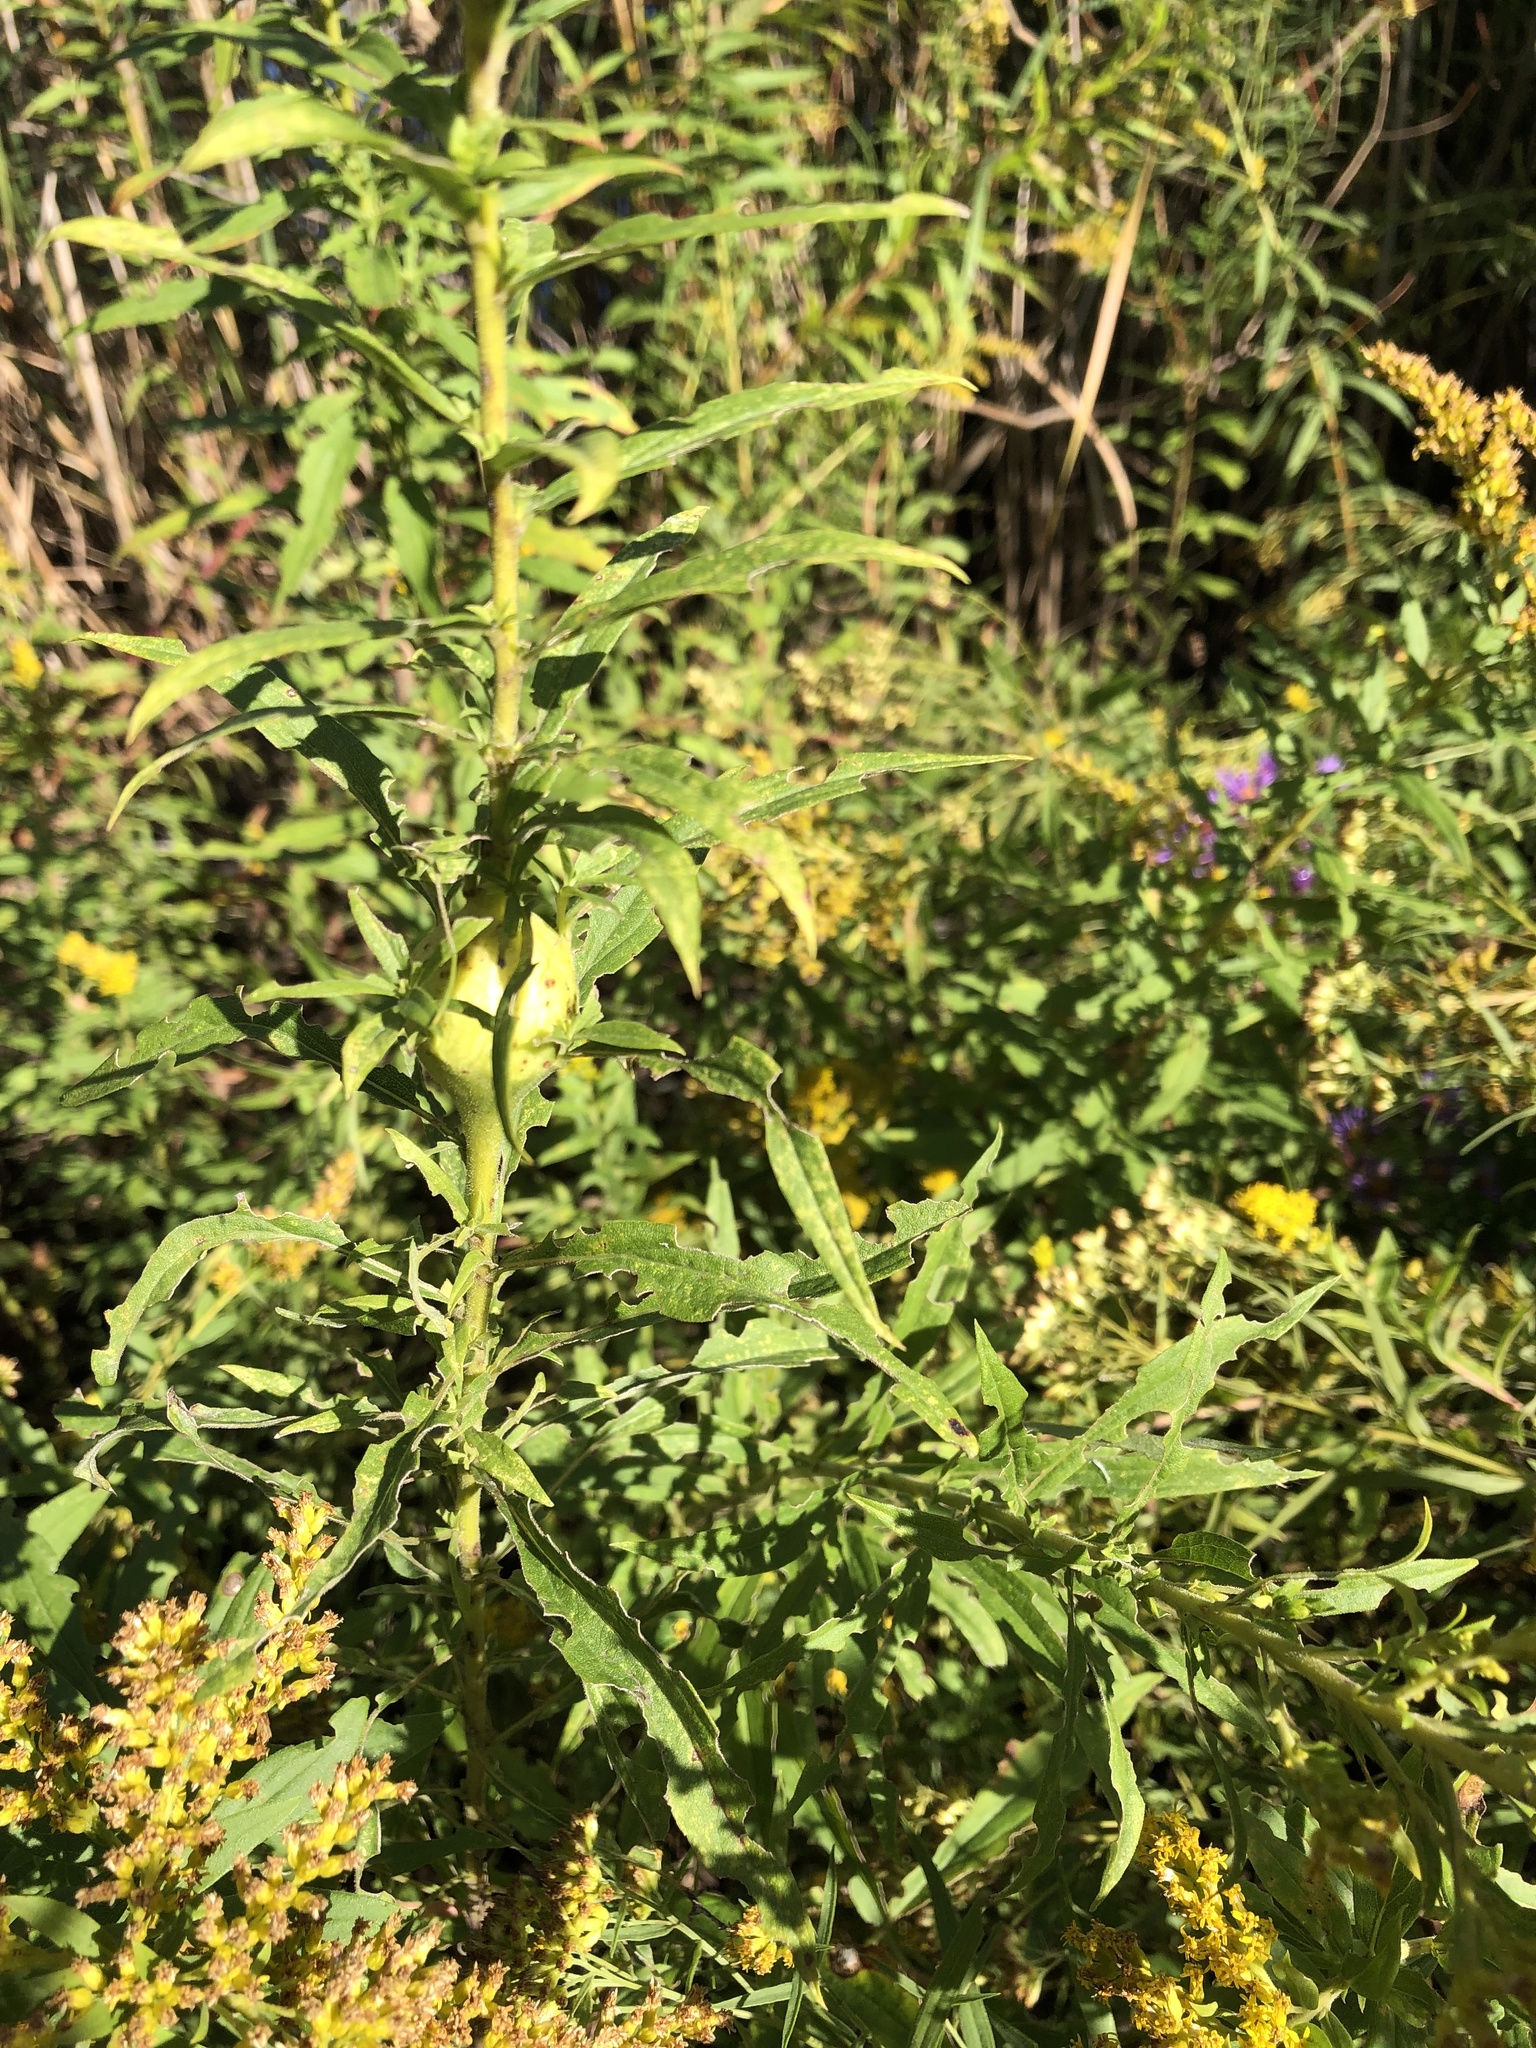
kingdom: Animalia
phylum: Arthropoda
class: Insecta
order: Diptera
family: Tephritidae
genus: Eurosta
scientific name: Eurosta solidaginis
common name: Goldenrod gall fly
